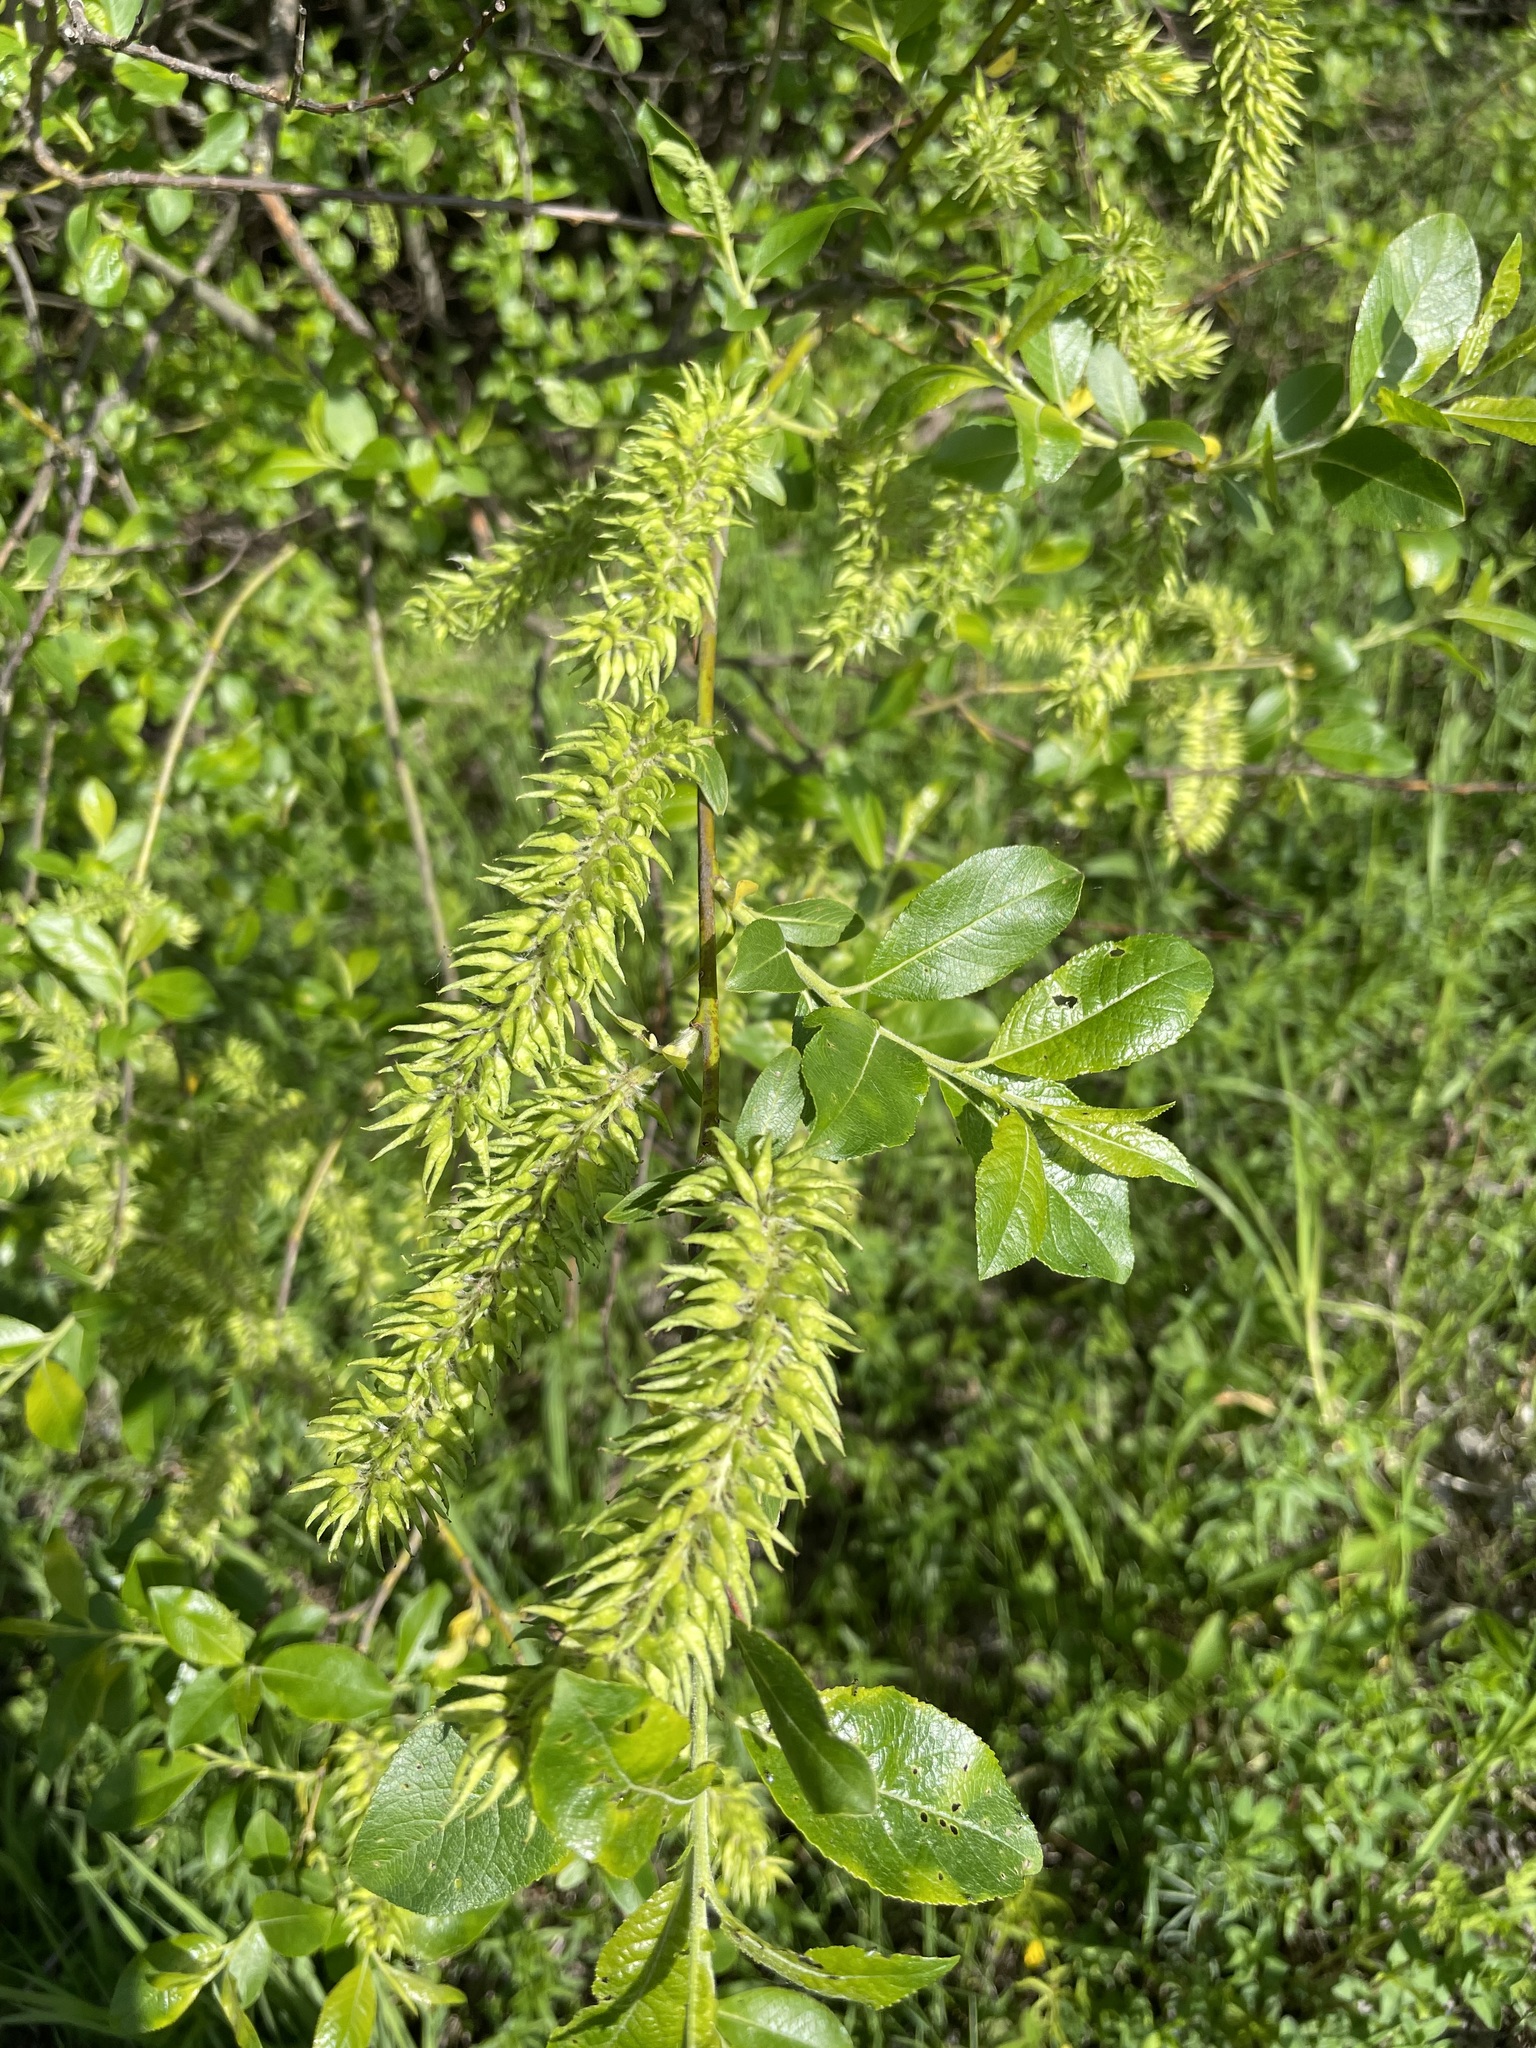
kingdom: Plantae
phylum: Tracheophyta
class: Magnoliopsida
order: Malpighiales
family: Salicaceae
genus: Salix
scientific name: Salix myrsinifolia
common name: Dark-leaved willow
